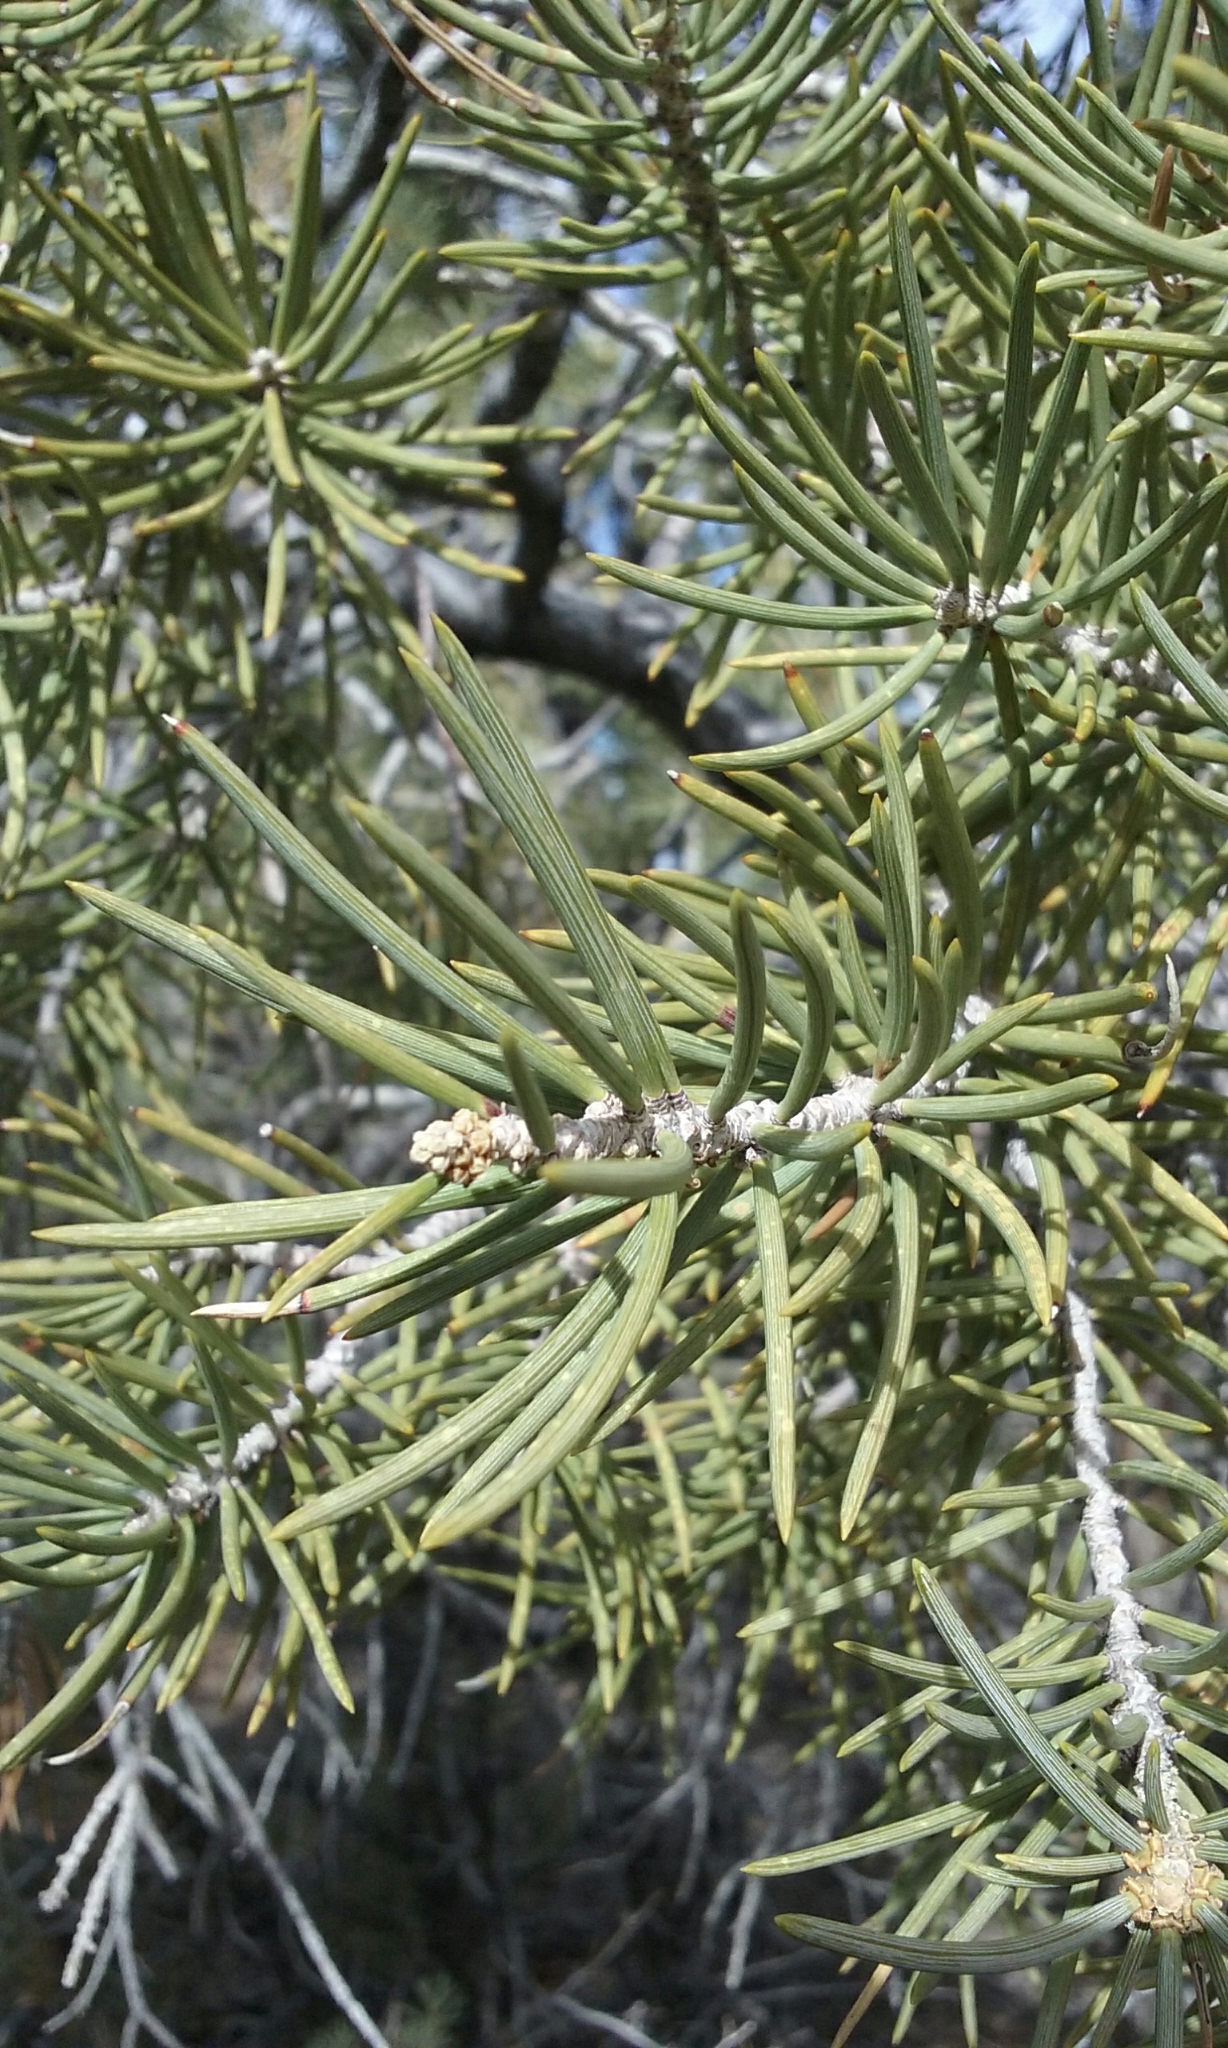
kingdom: Plantae
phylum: Tracheophyta
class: Pinopsida
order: Pinales
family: Pinaceae
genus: Pinus
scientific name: Pinus monophylla
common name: One-leaved nut pine
